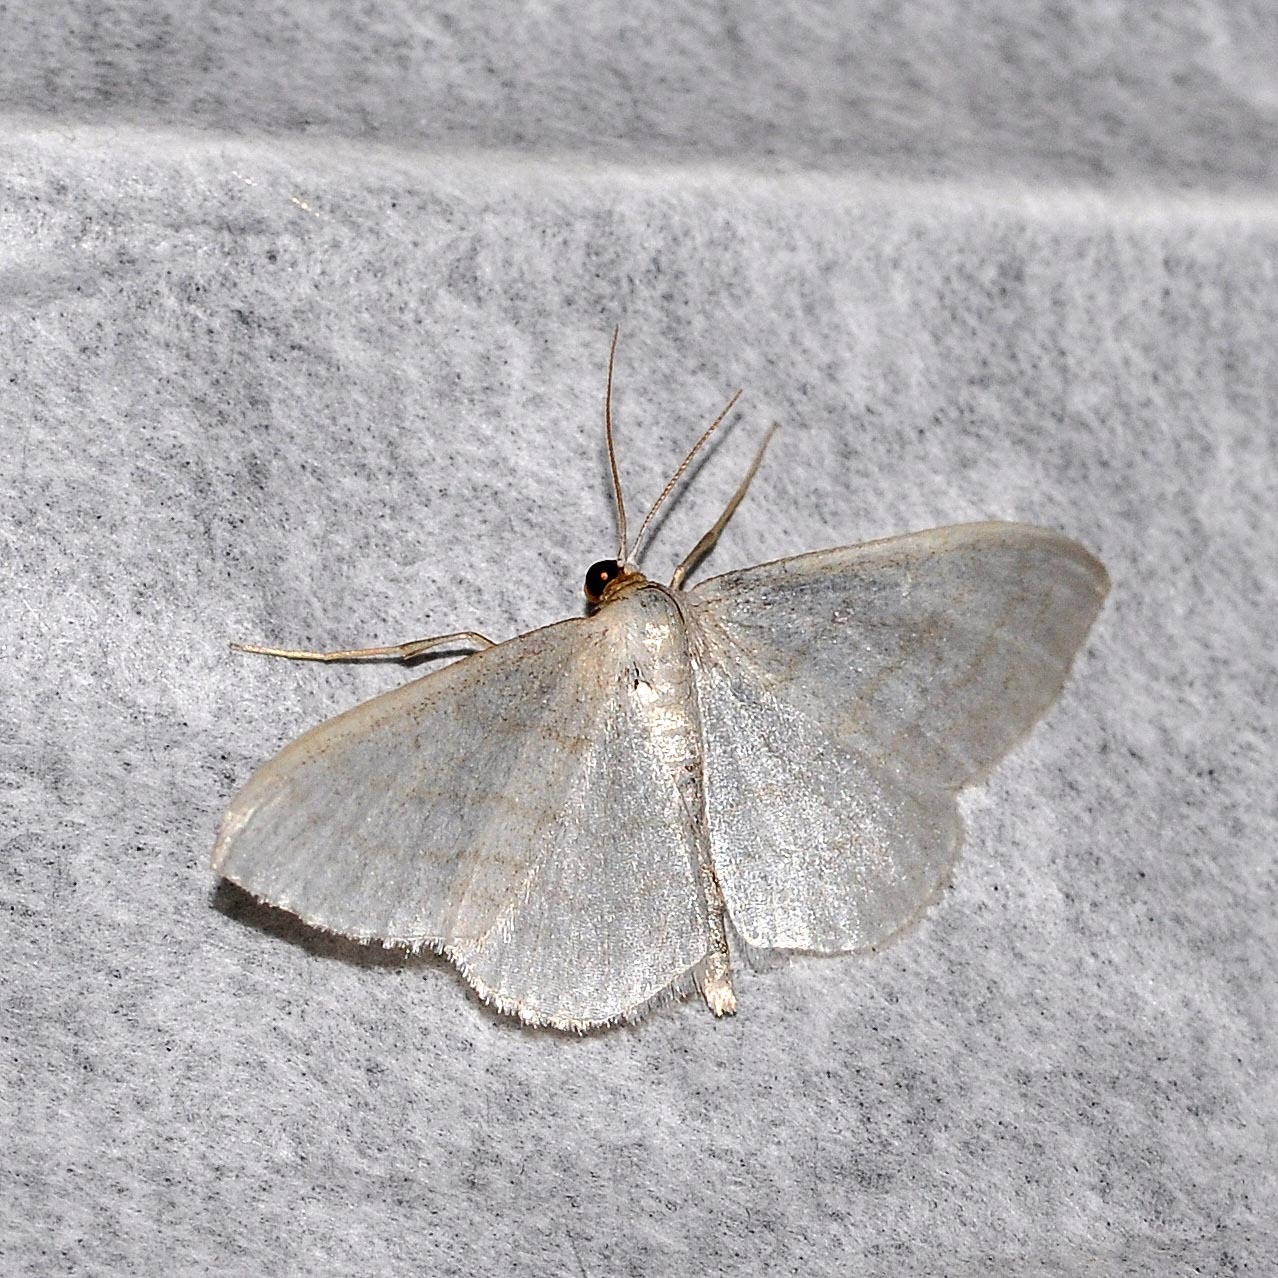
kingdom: Animalia
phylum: Arthropoda
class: Insecta
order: Lepidoptera
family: Geometridae
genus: Idaea
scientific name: Idaea subsericeata
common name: Satin wave
